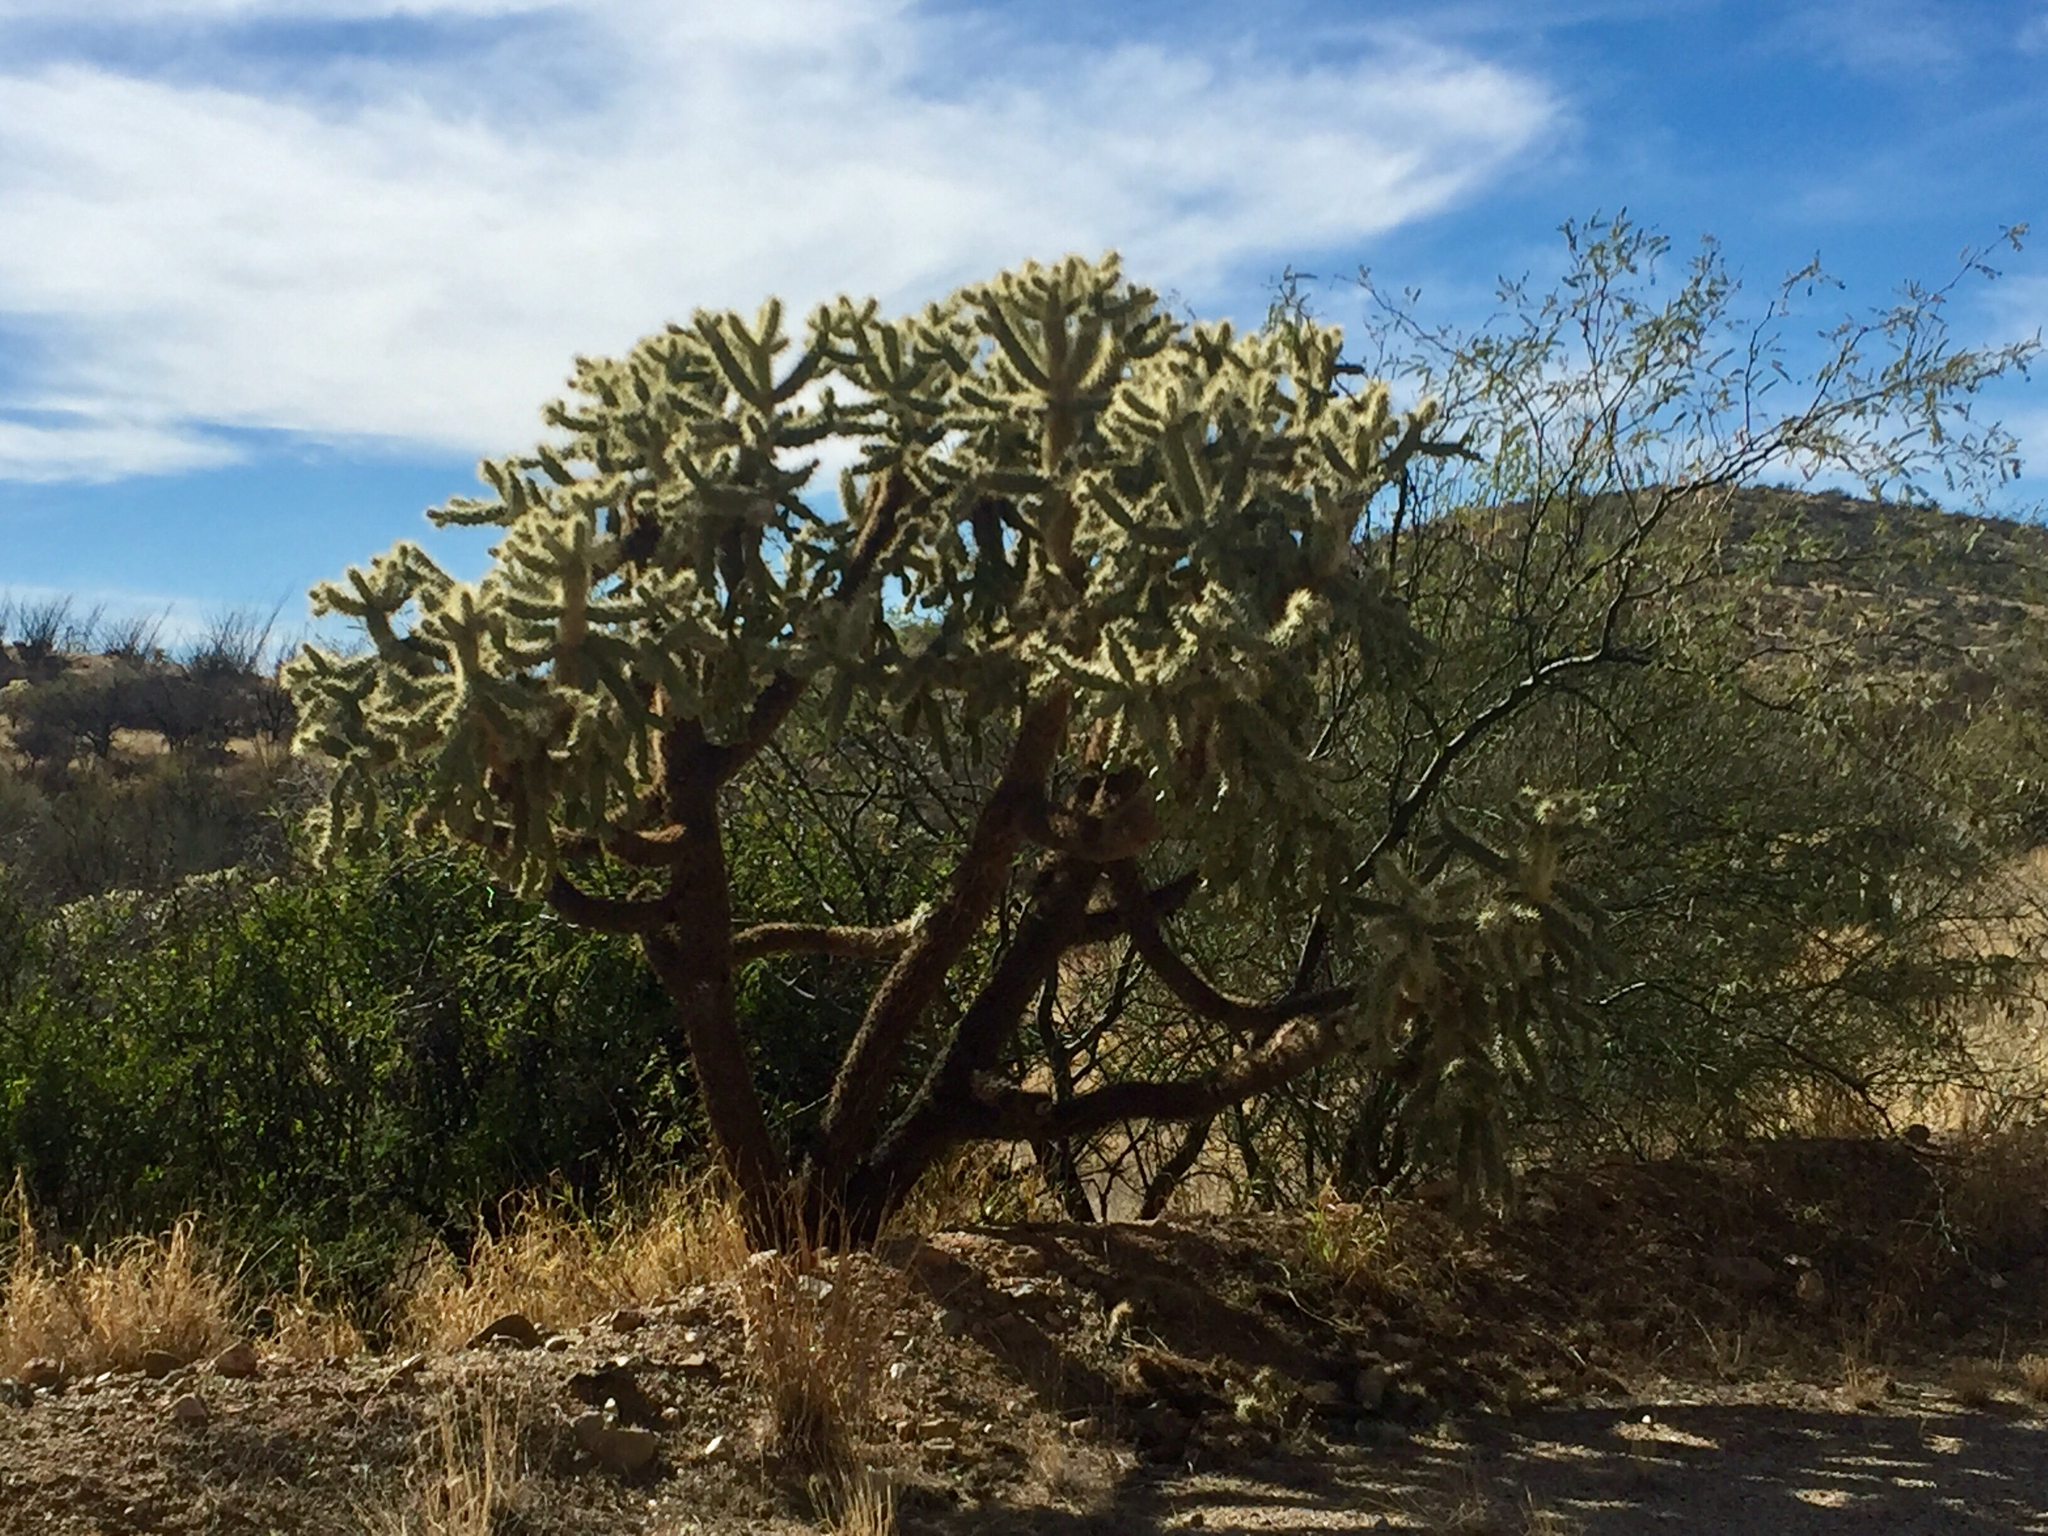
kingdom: Plantae
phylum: Tracheophyta
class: Magnoliopsida
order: Caryophyllales
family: Cactaceae
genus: Cylindropuntia
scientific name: Cylindropuntia fulgida
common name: Jumping cholla
